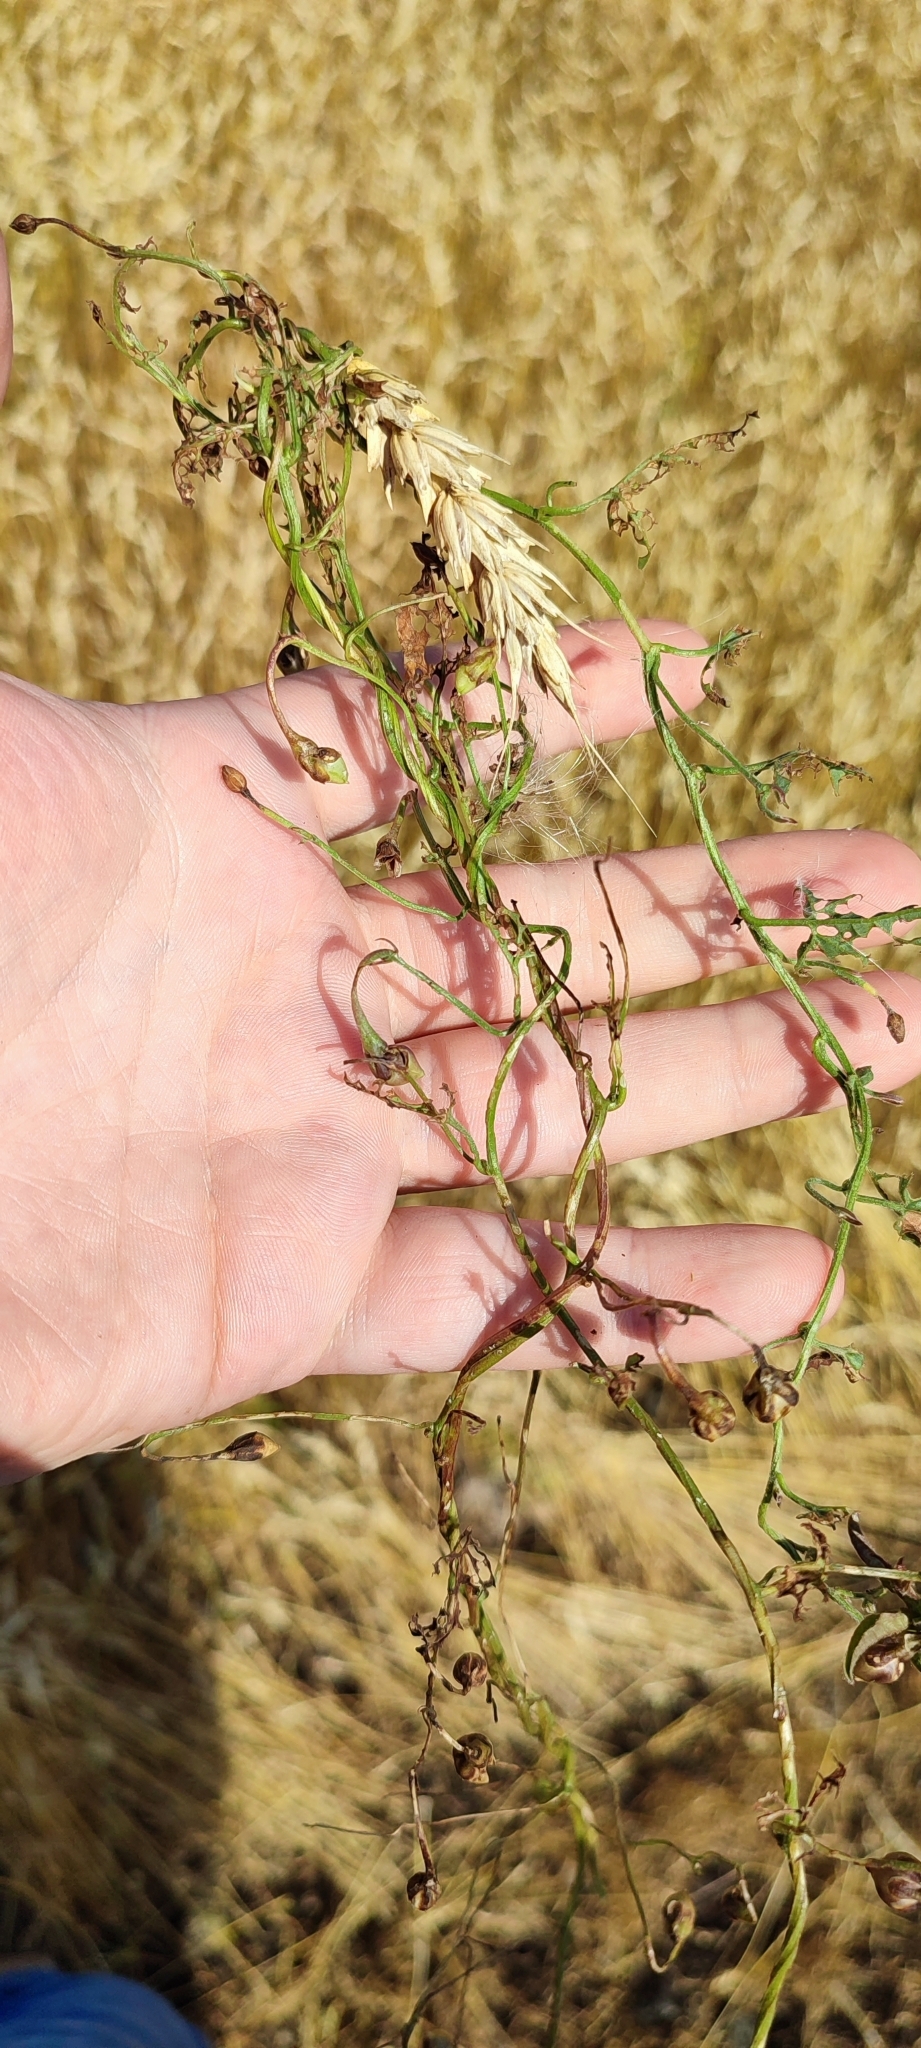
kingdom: Plantae
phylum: Tracheophyta
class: Magnoliopsida
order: Solanales
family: Convolvulaceae
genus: Convolvulus
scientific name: Convolvulus arvensis
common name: Field bindweed
